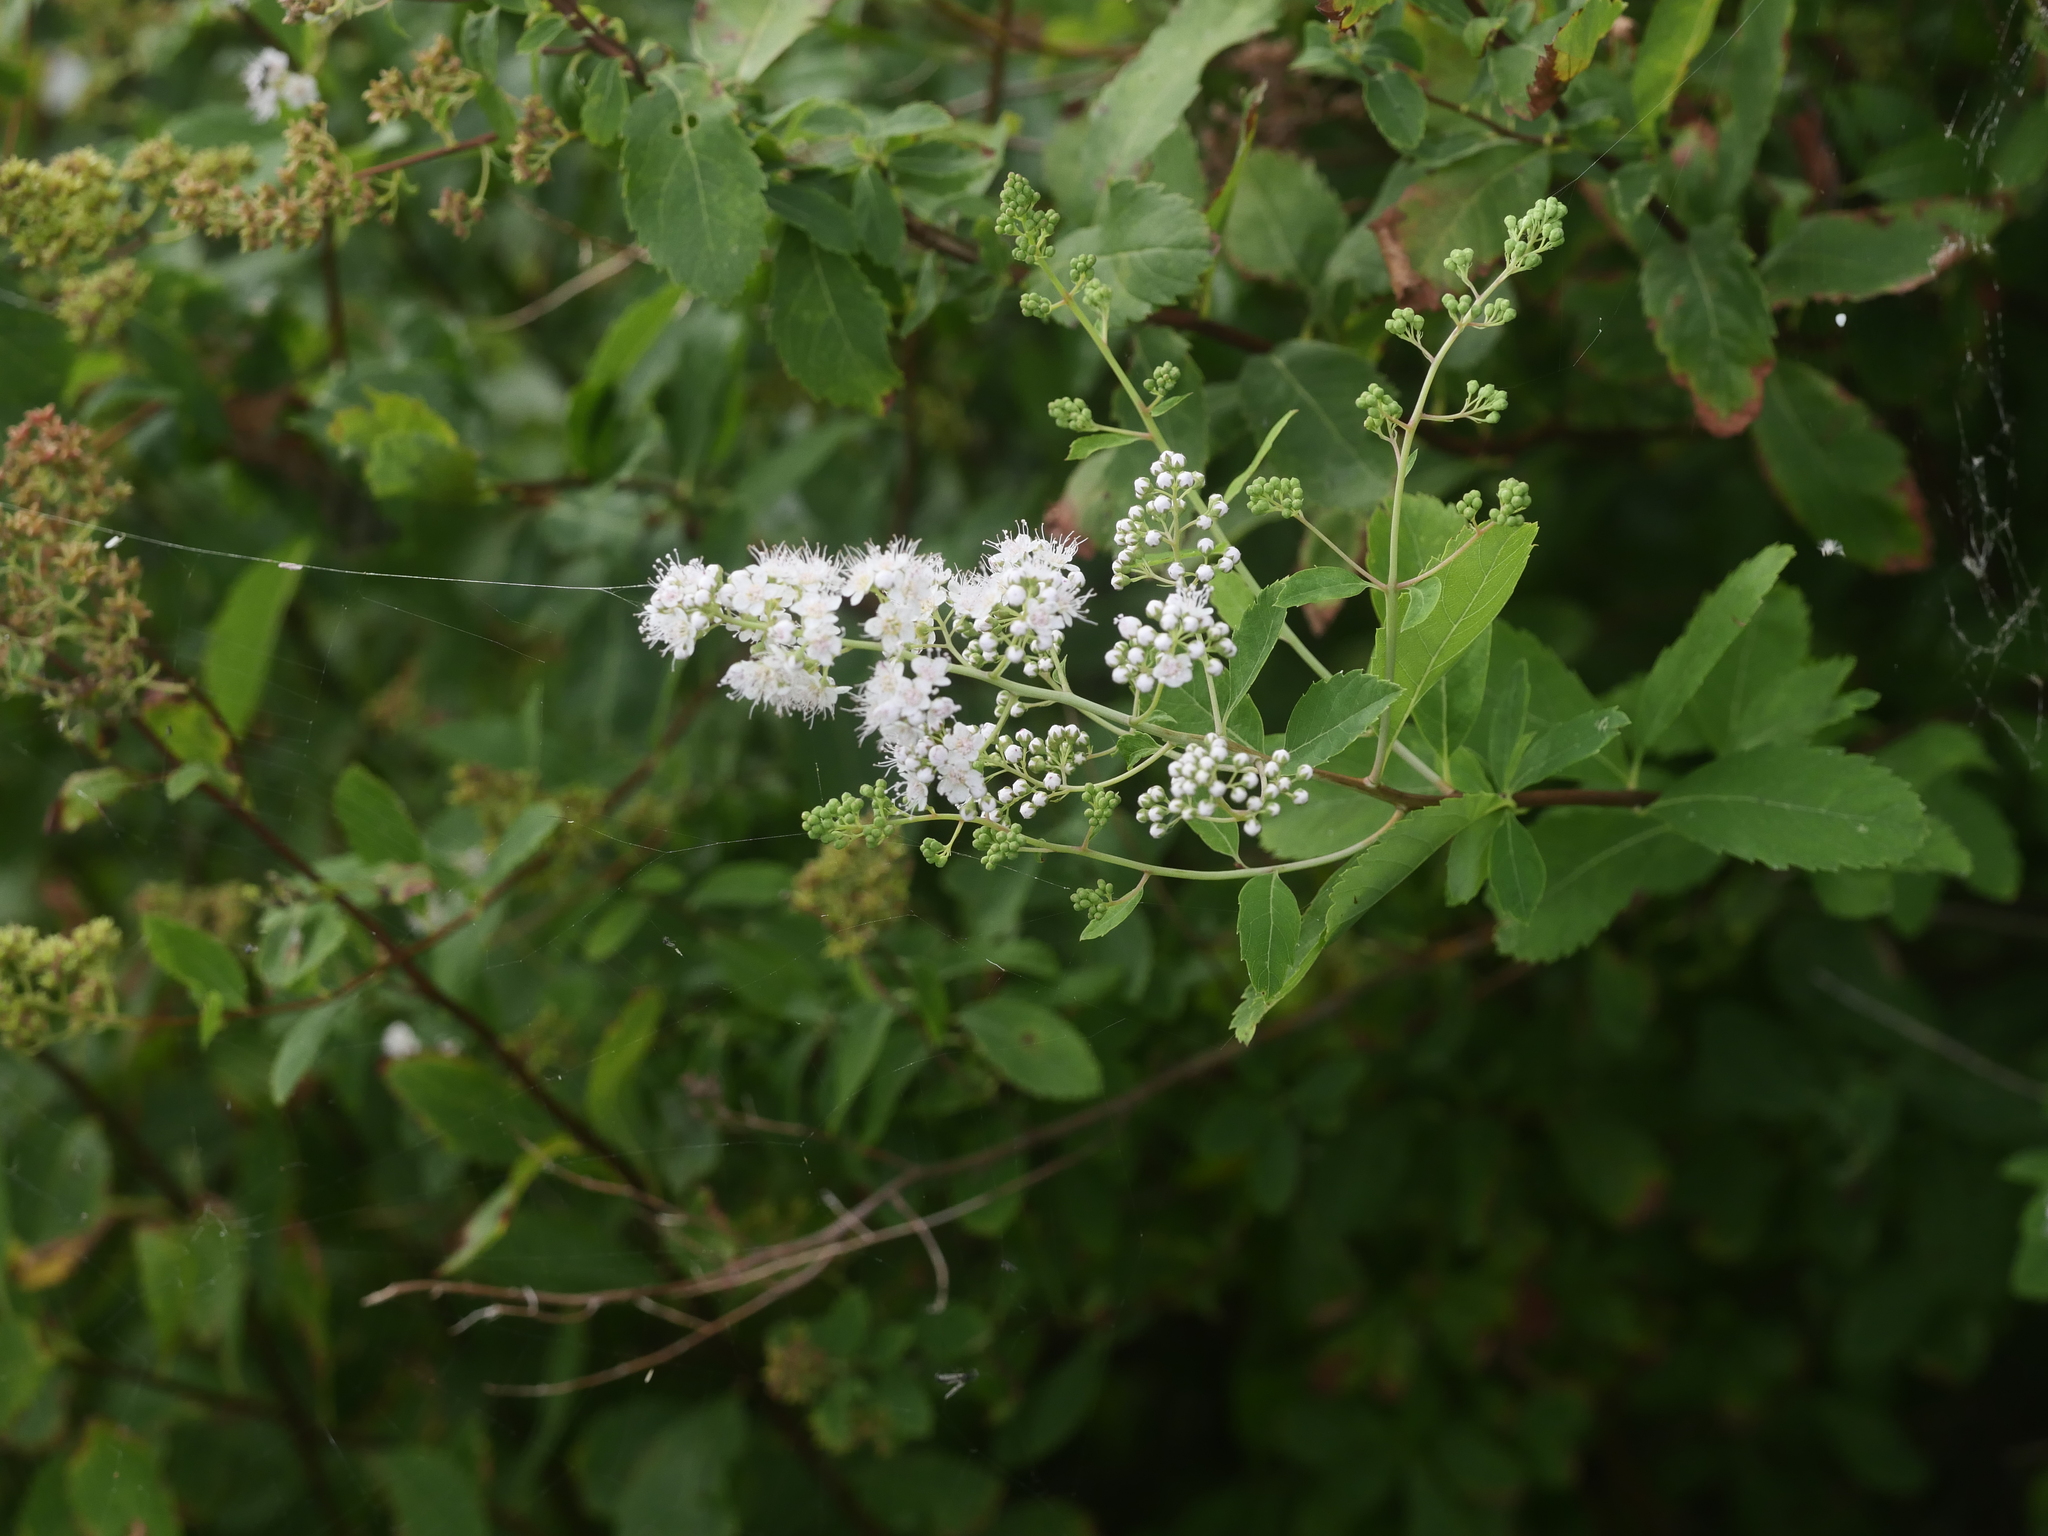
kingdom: Plantae
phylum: Tracheophyta
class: Magnoliopsida
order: Rosales
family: Rosaceae
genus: Spiraea
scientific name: Spiraea alba
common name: Pale bridewort
